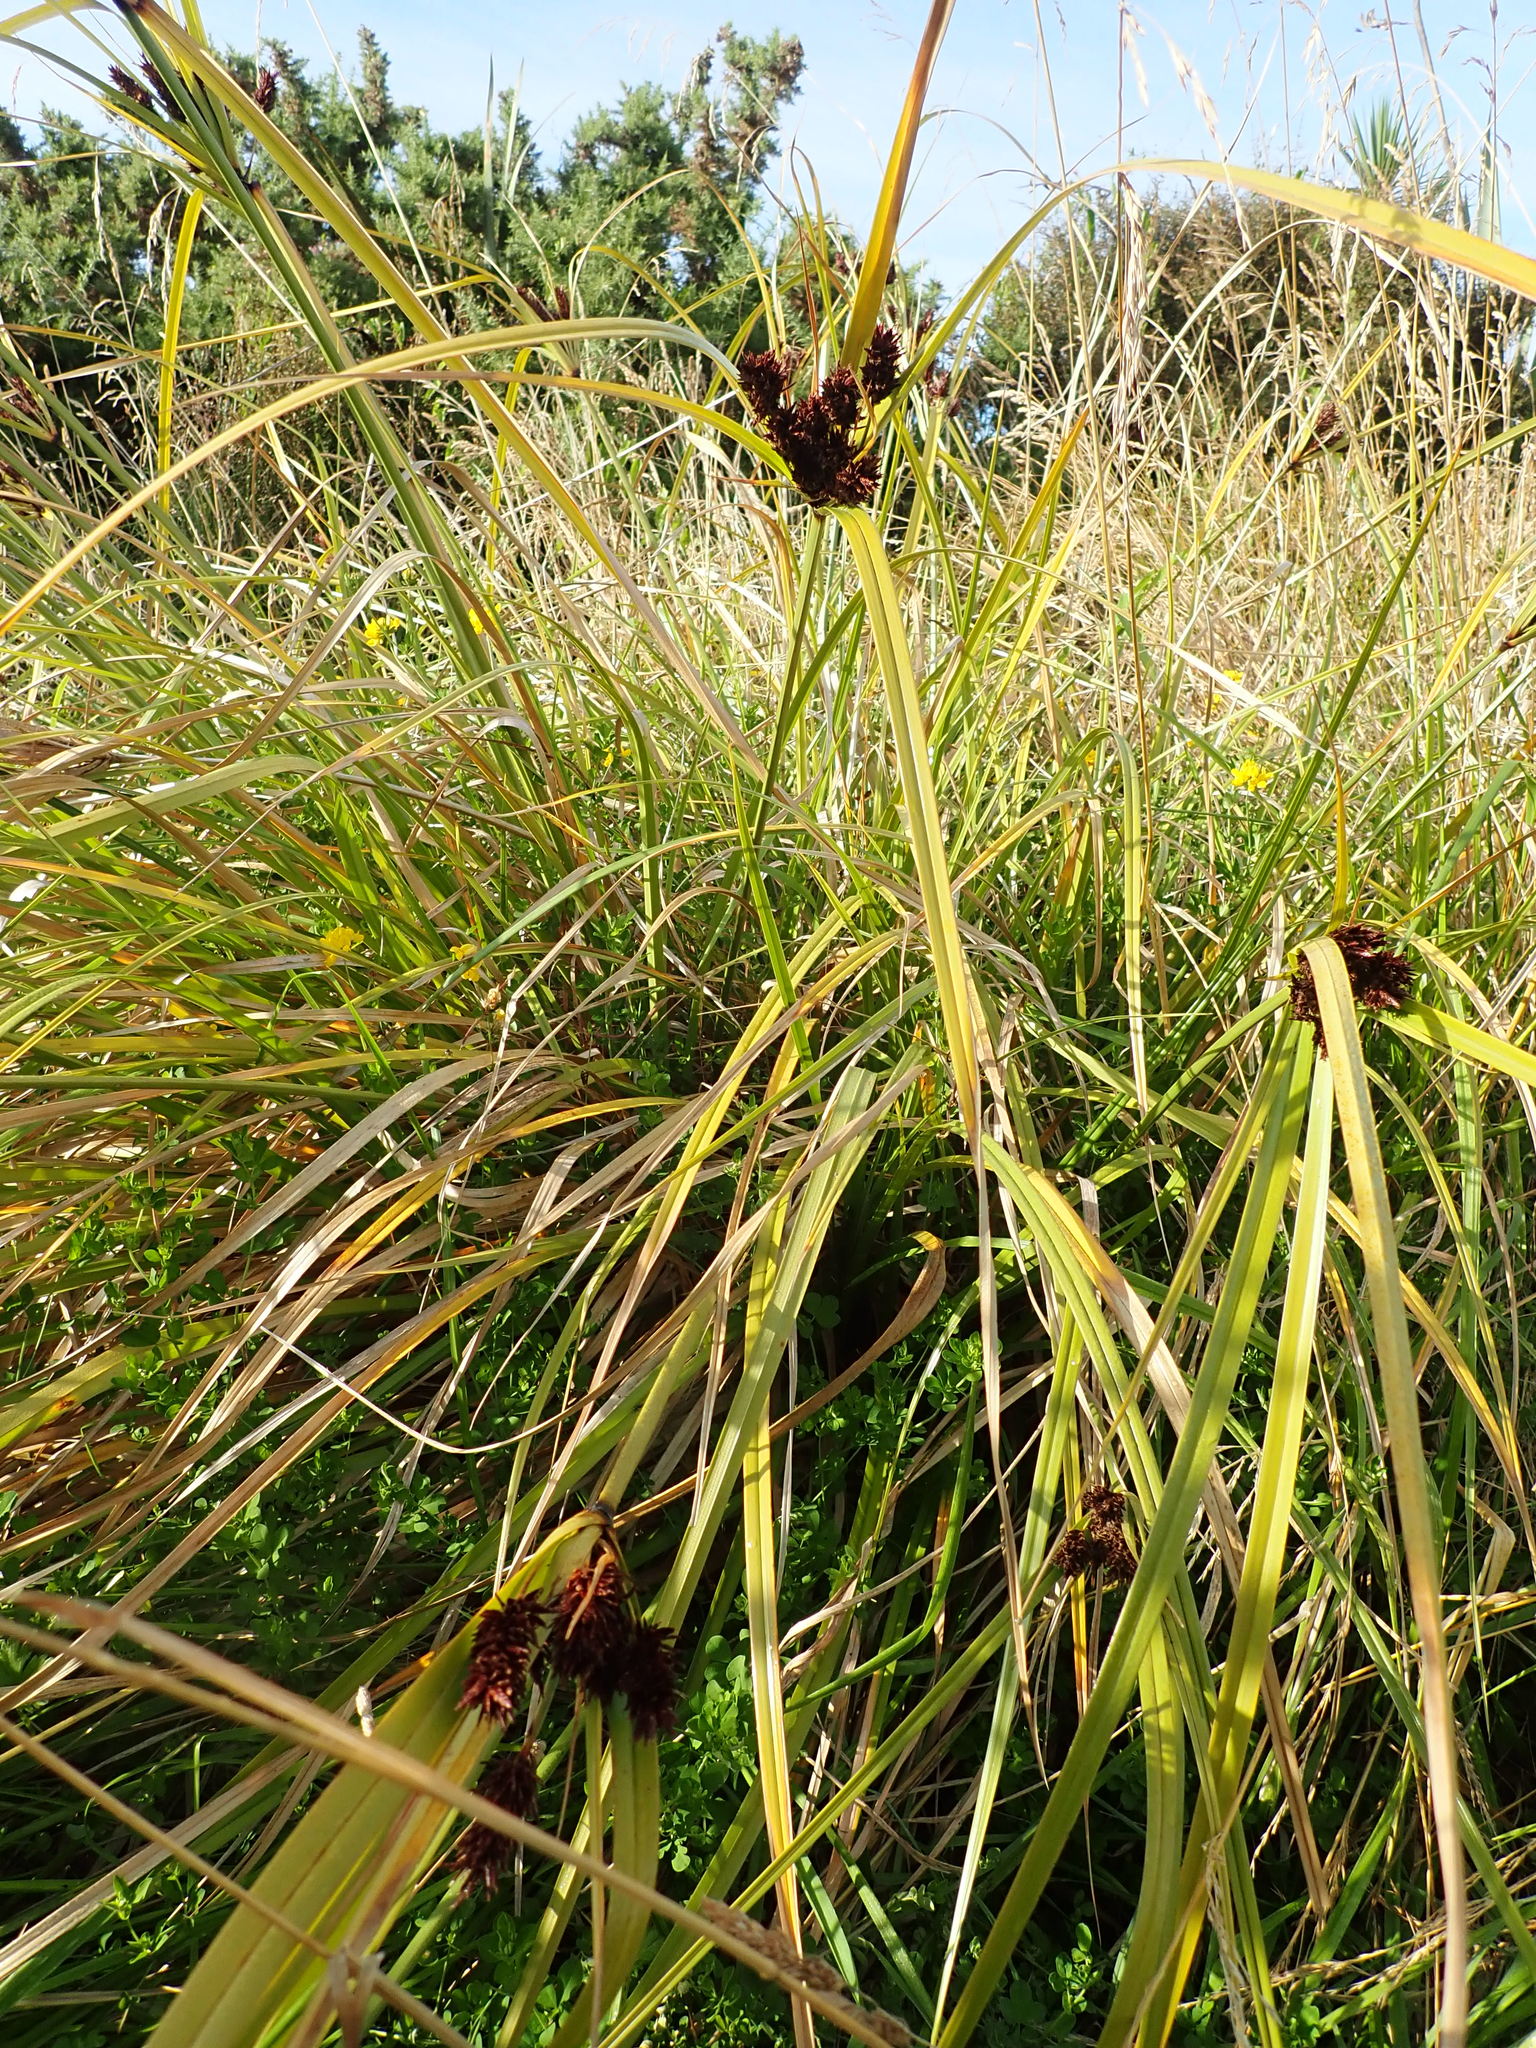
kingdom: Plantae
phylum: Tracheophyta
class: Liliopsida
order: Poales
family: Cyperaceae
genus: Cyperus
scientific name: Cyperus ustulatus
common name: Giant umbrella-sedge
